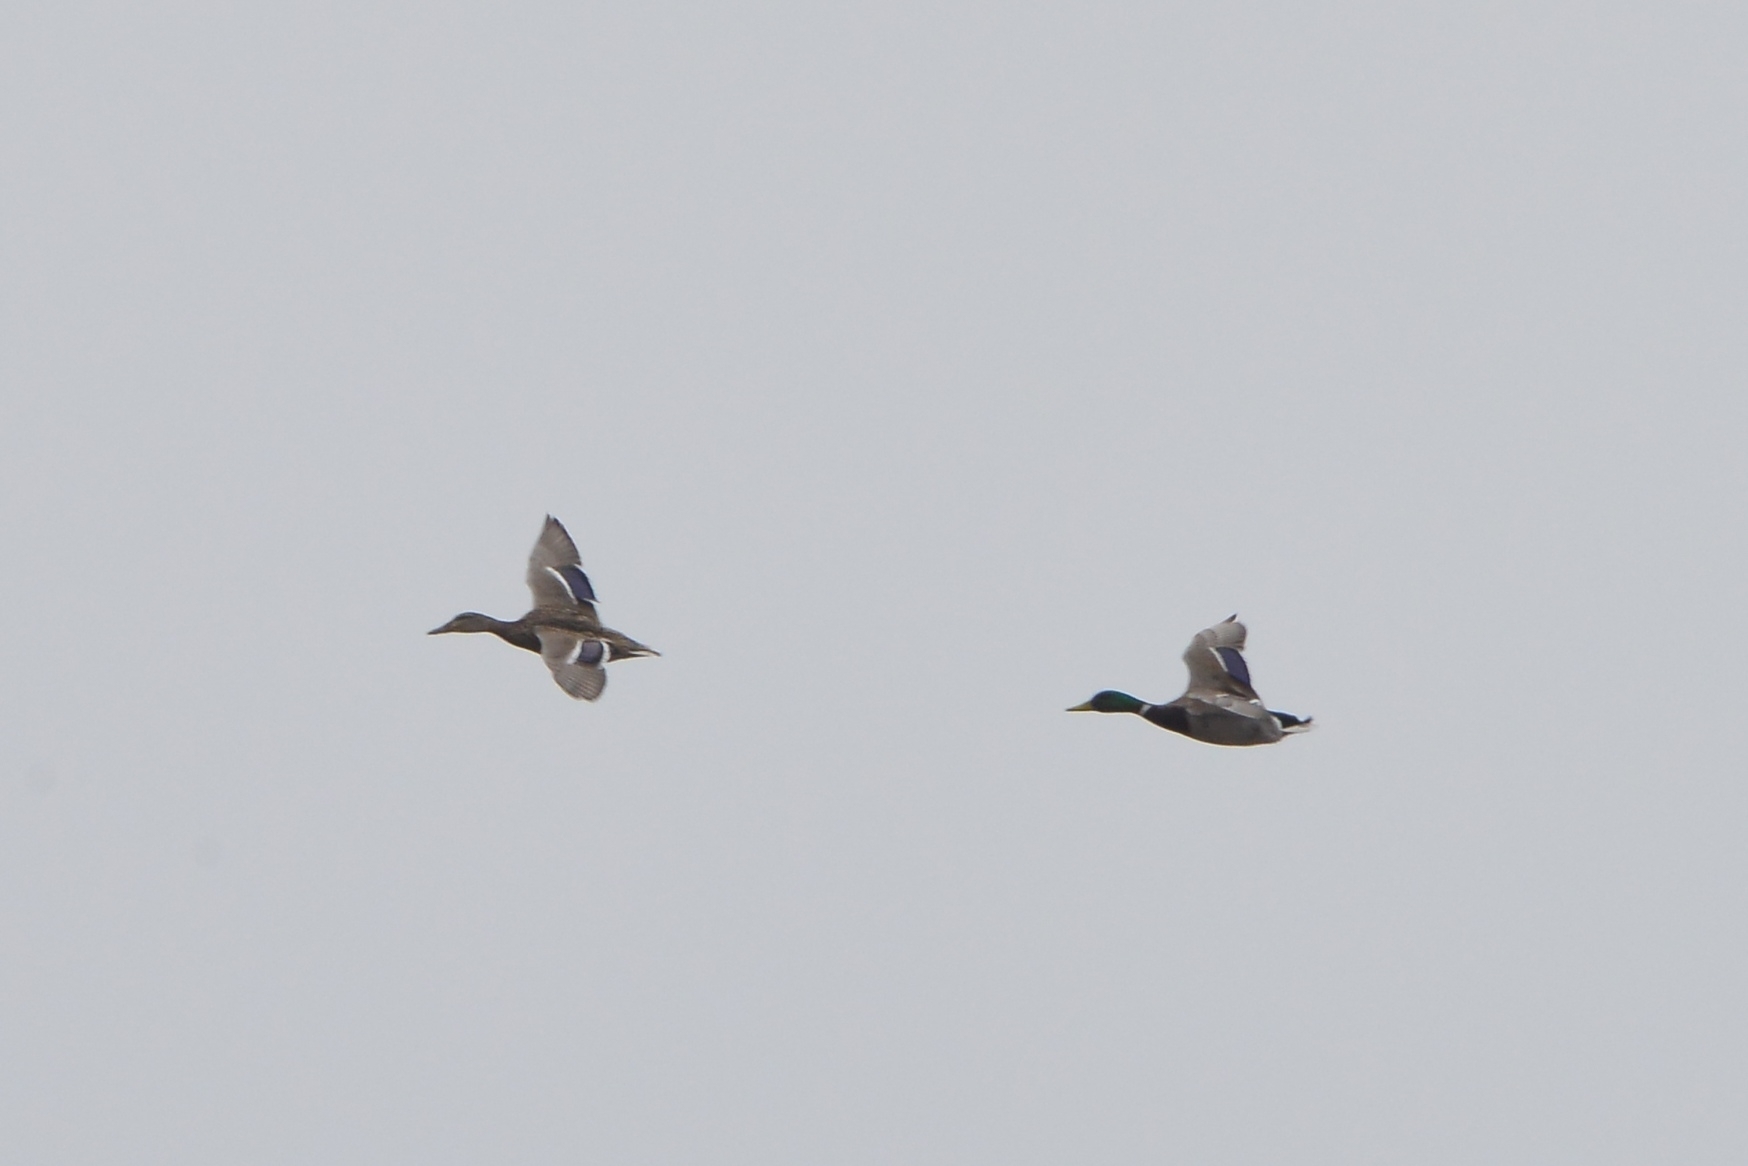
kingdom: Animalia
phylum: Chordata
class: Aves
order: Anseriformes
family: Anatidae
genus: Anas
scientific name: Anas platyrhynchos
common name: Mallard
